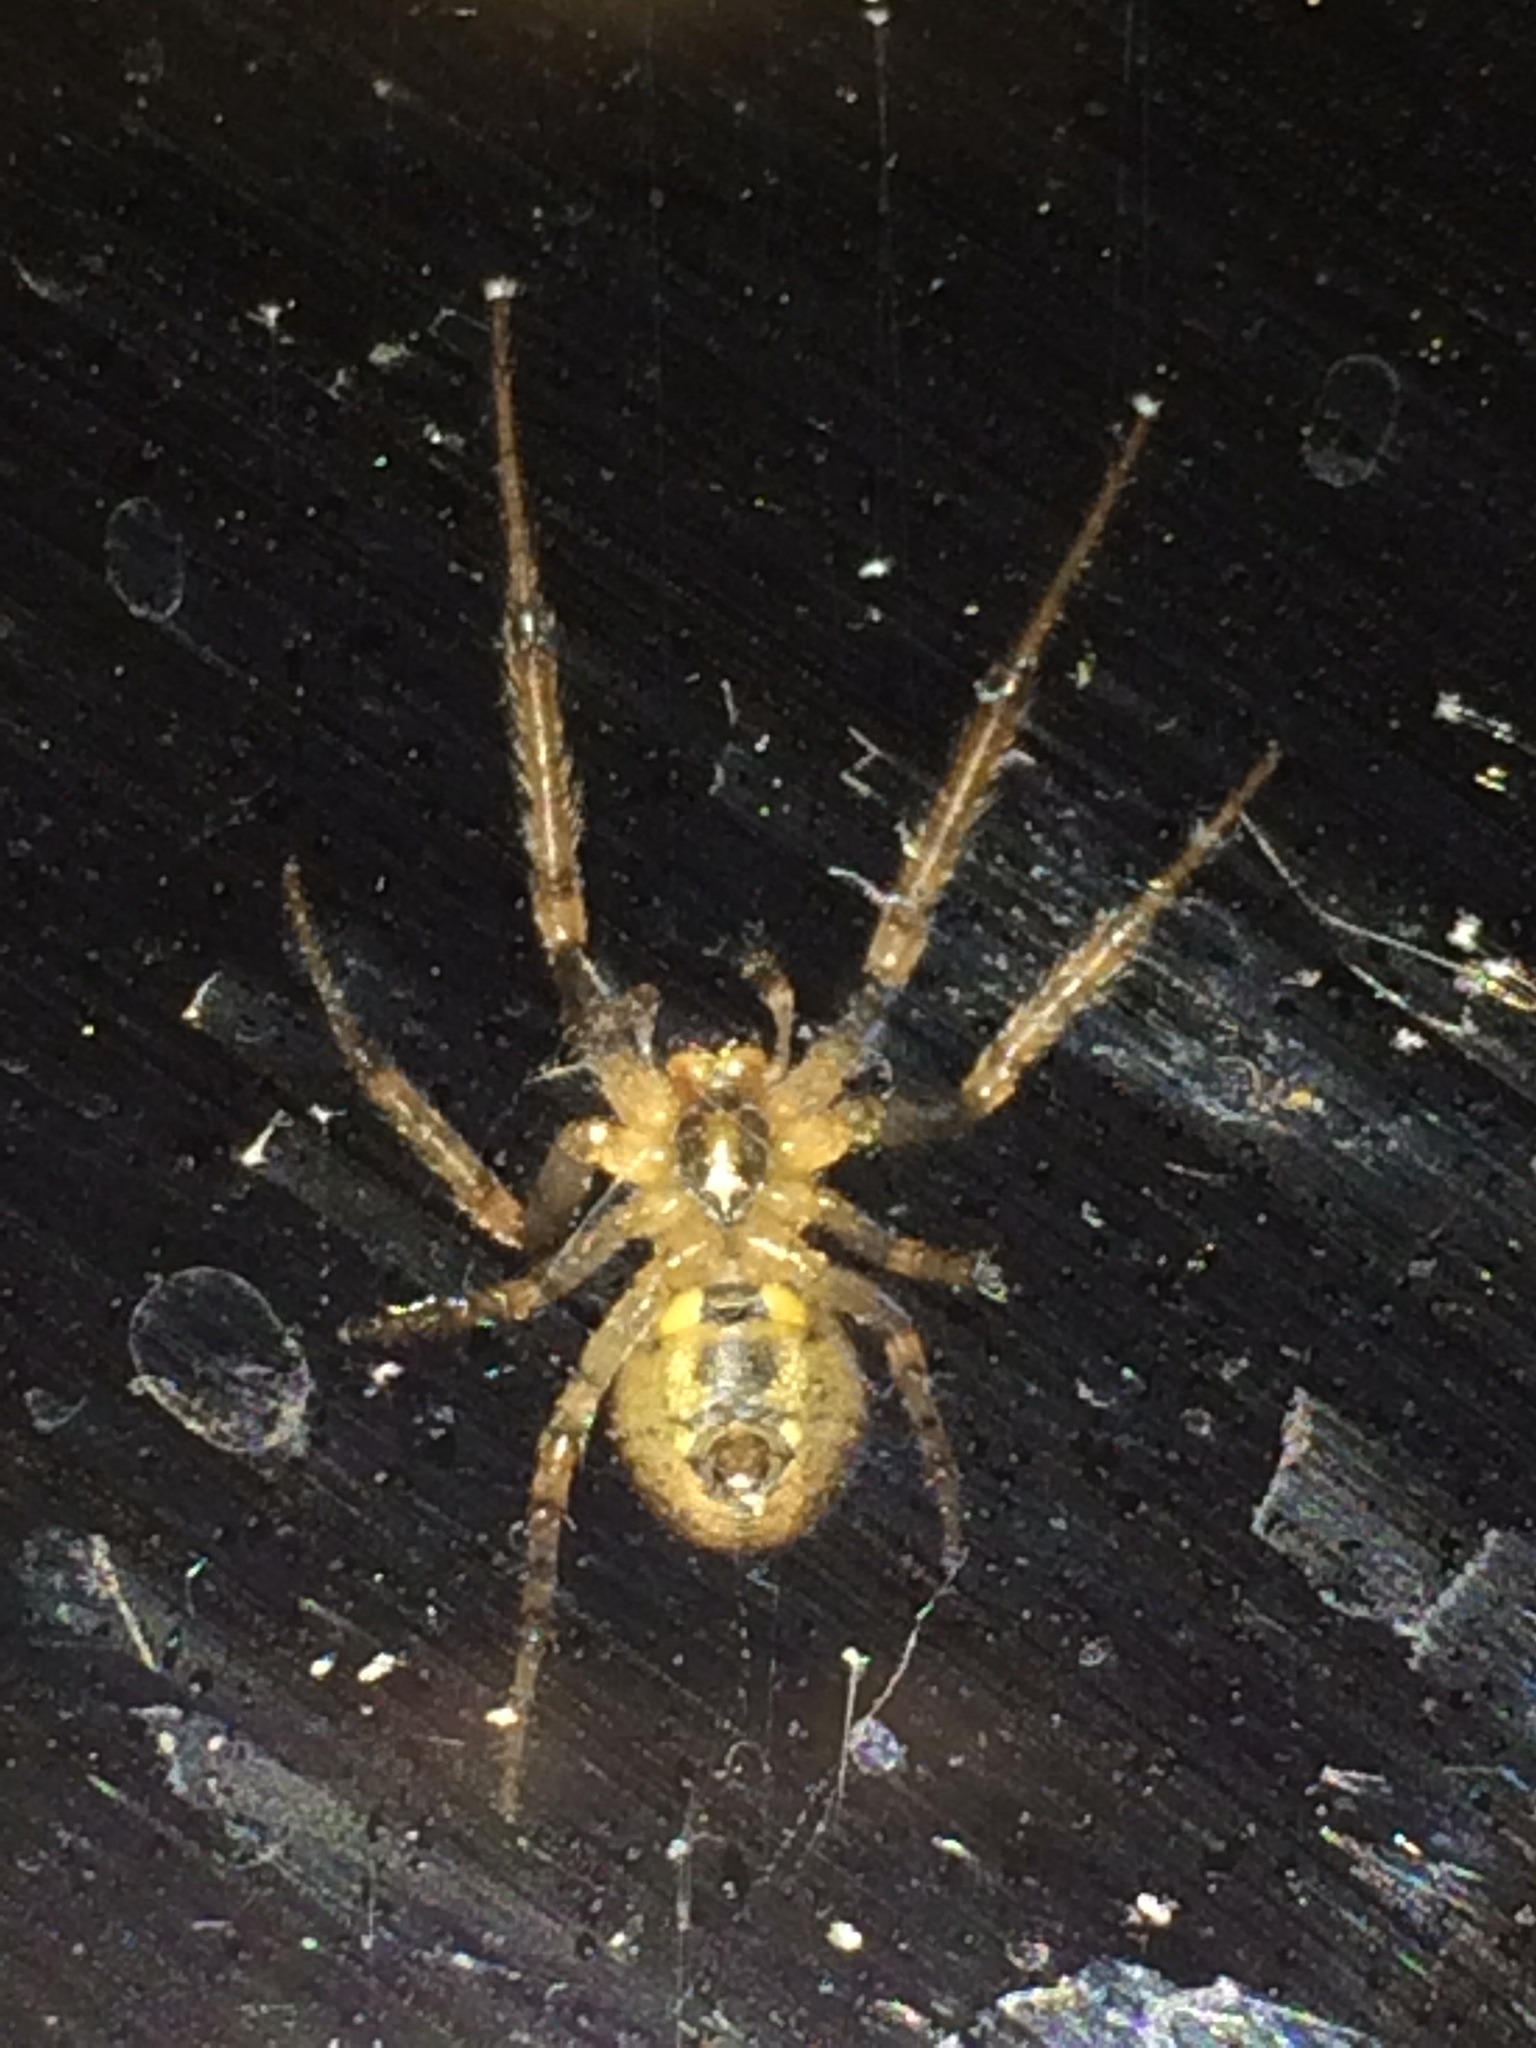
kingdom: Animalia
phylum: Arthropoda
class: Arachnida
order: Araneae
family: Araneidae
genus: Zygiella
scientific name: Zygiella x-notata
